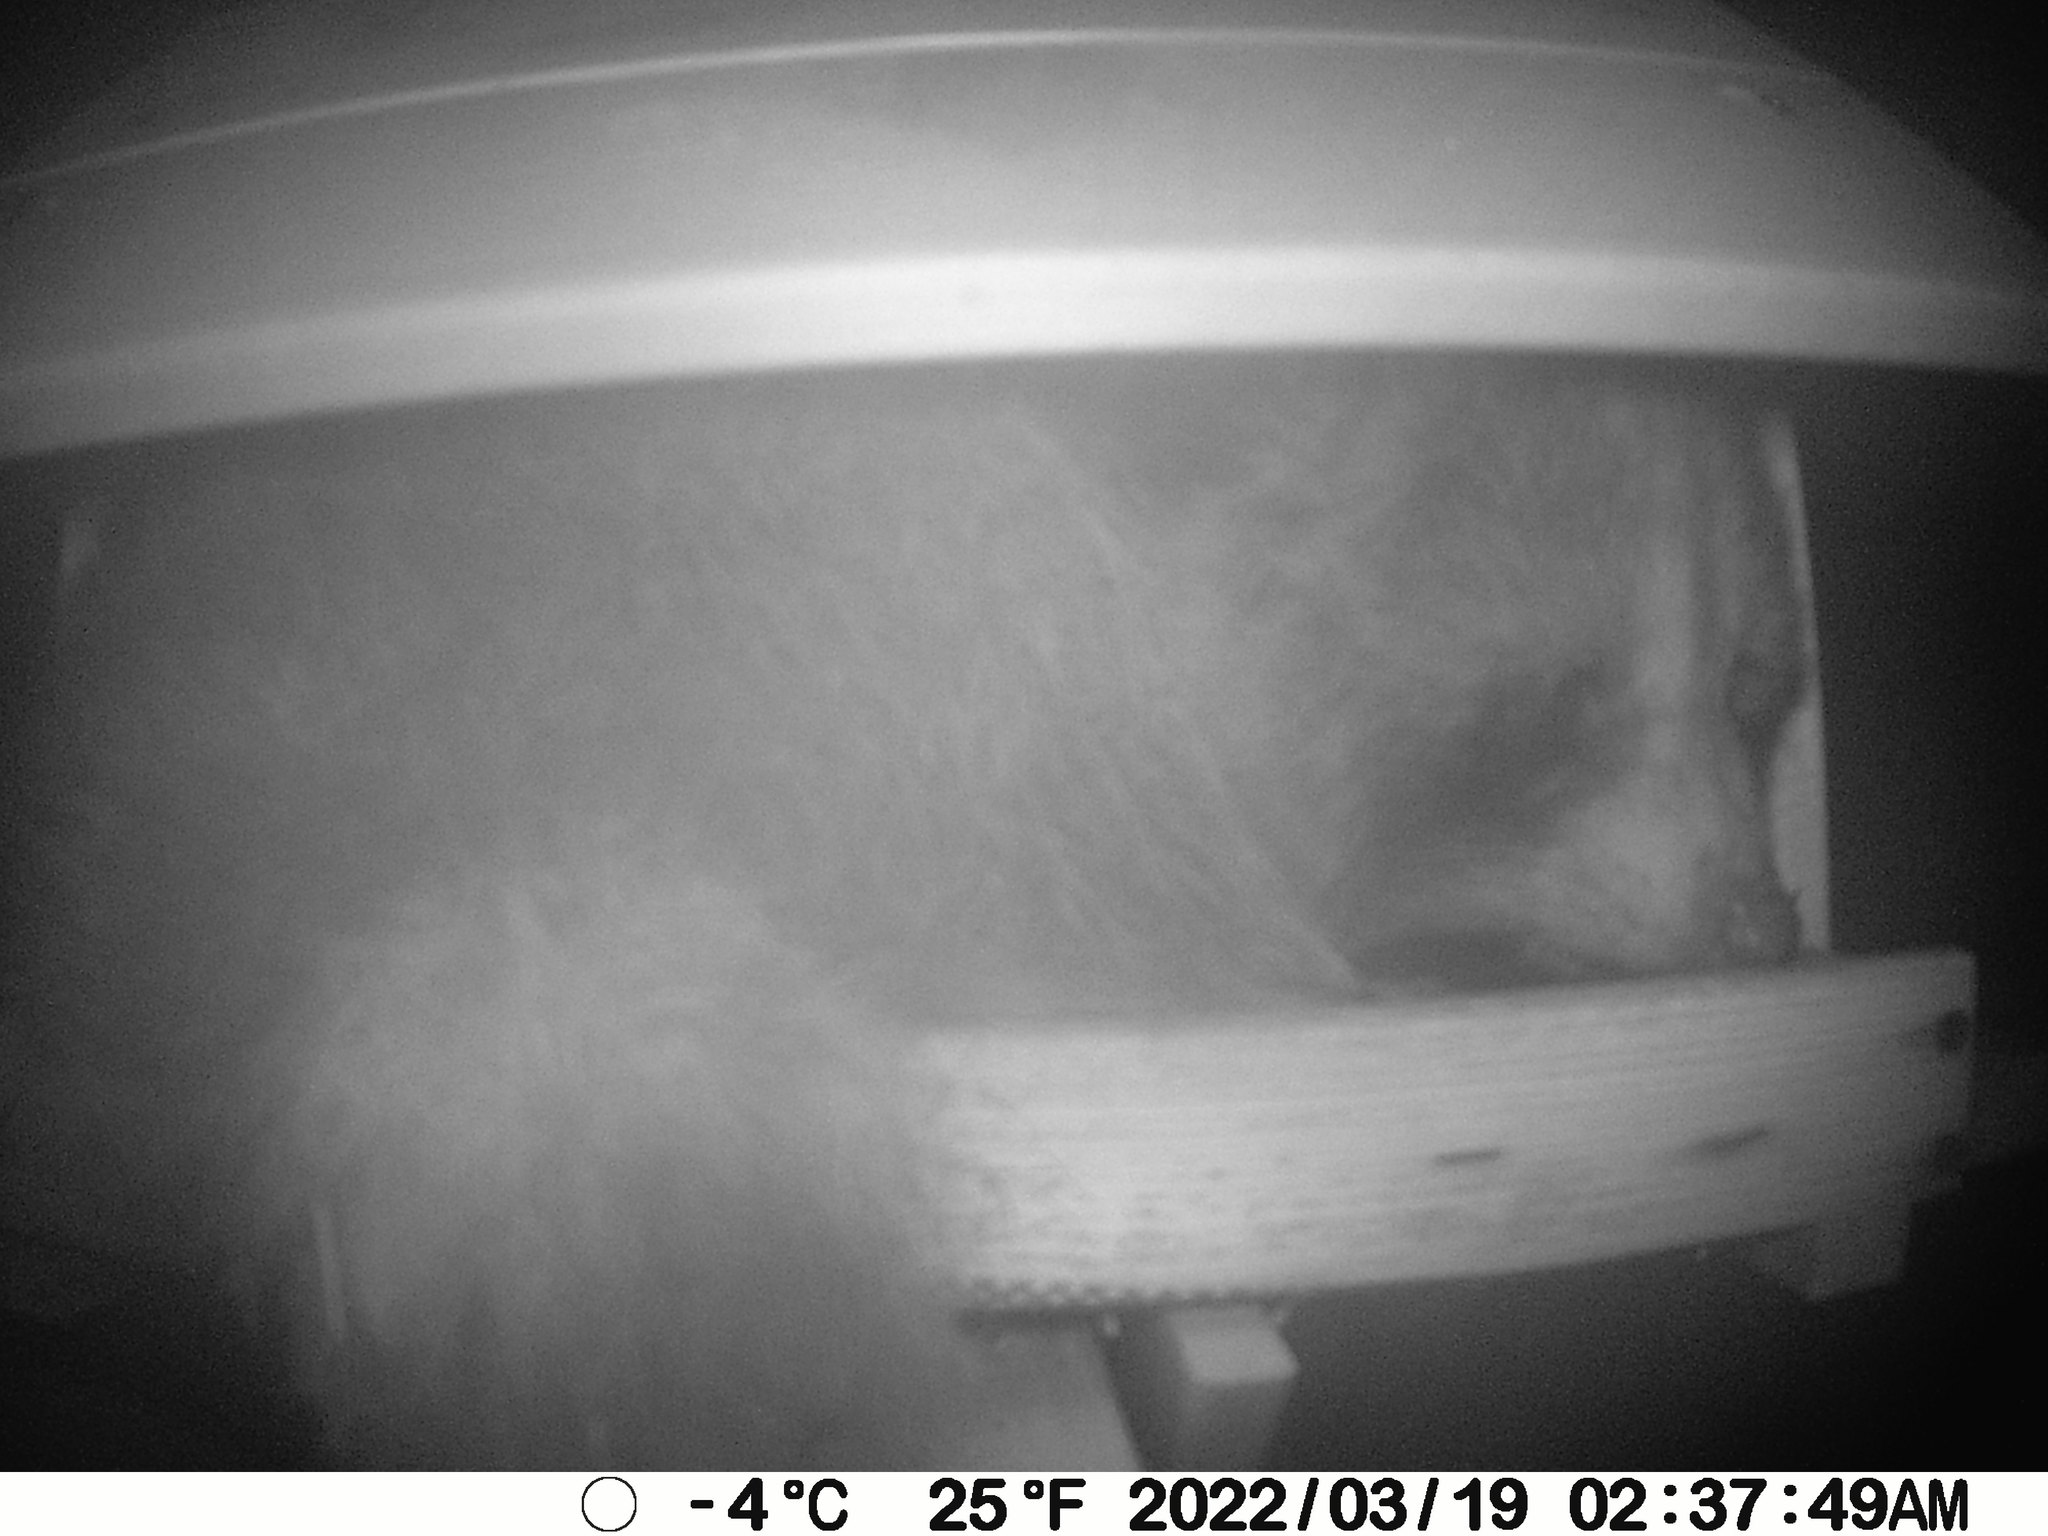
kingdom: Animalia
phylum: Chordata
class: Mammalia
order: Carnivora
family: Procyonidae
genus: Procyon
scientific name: Procyon lotor
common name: Raccoon
